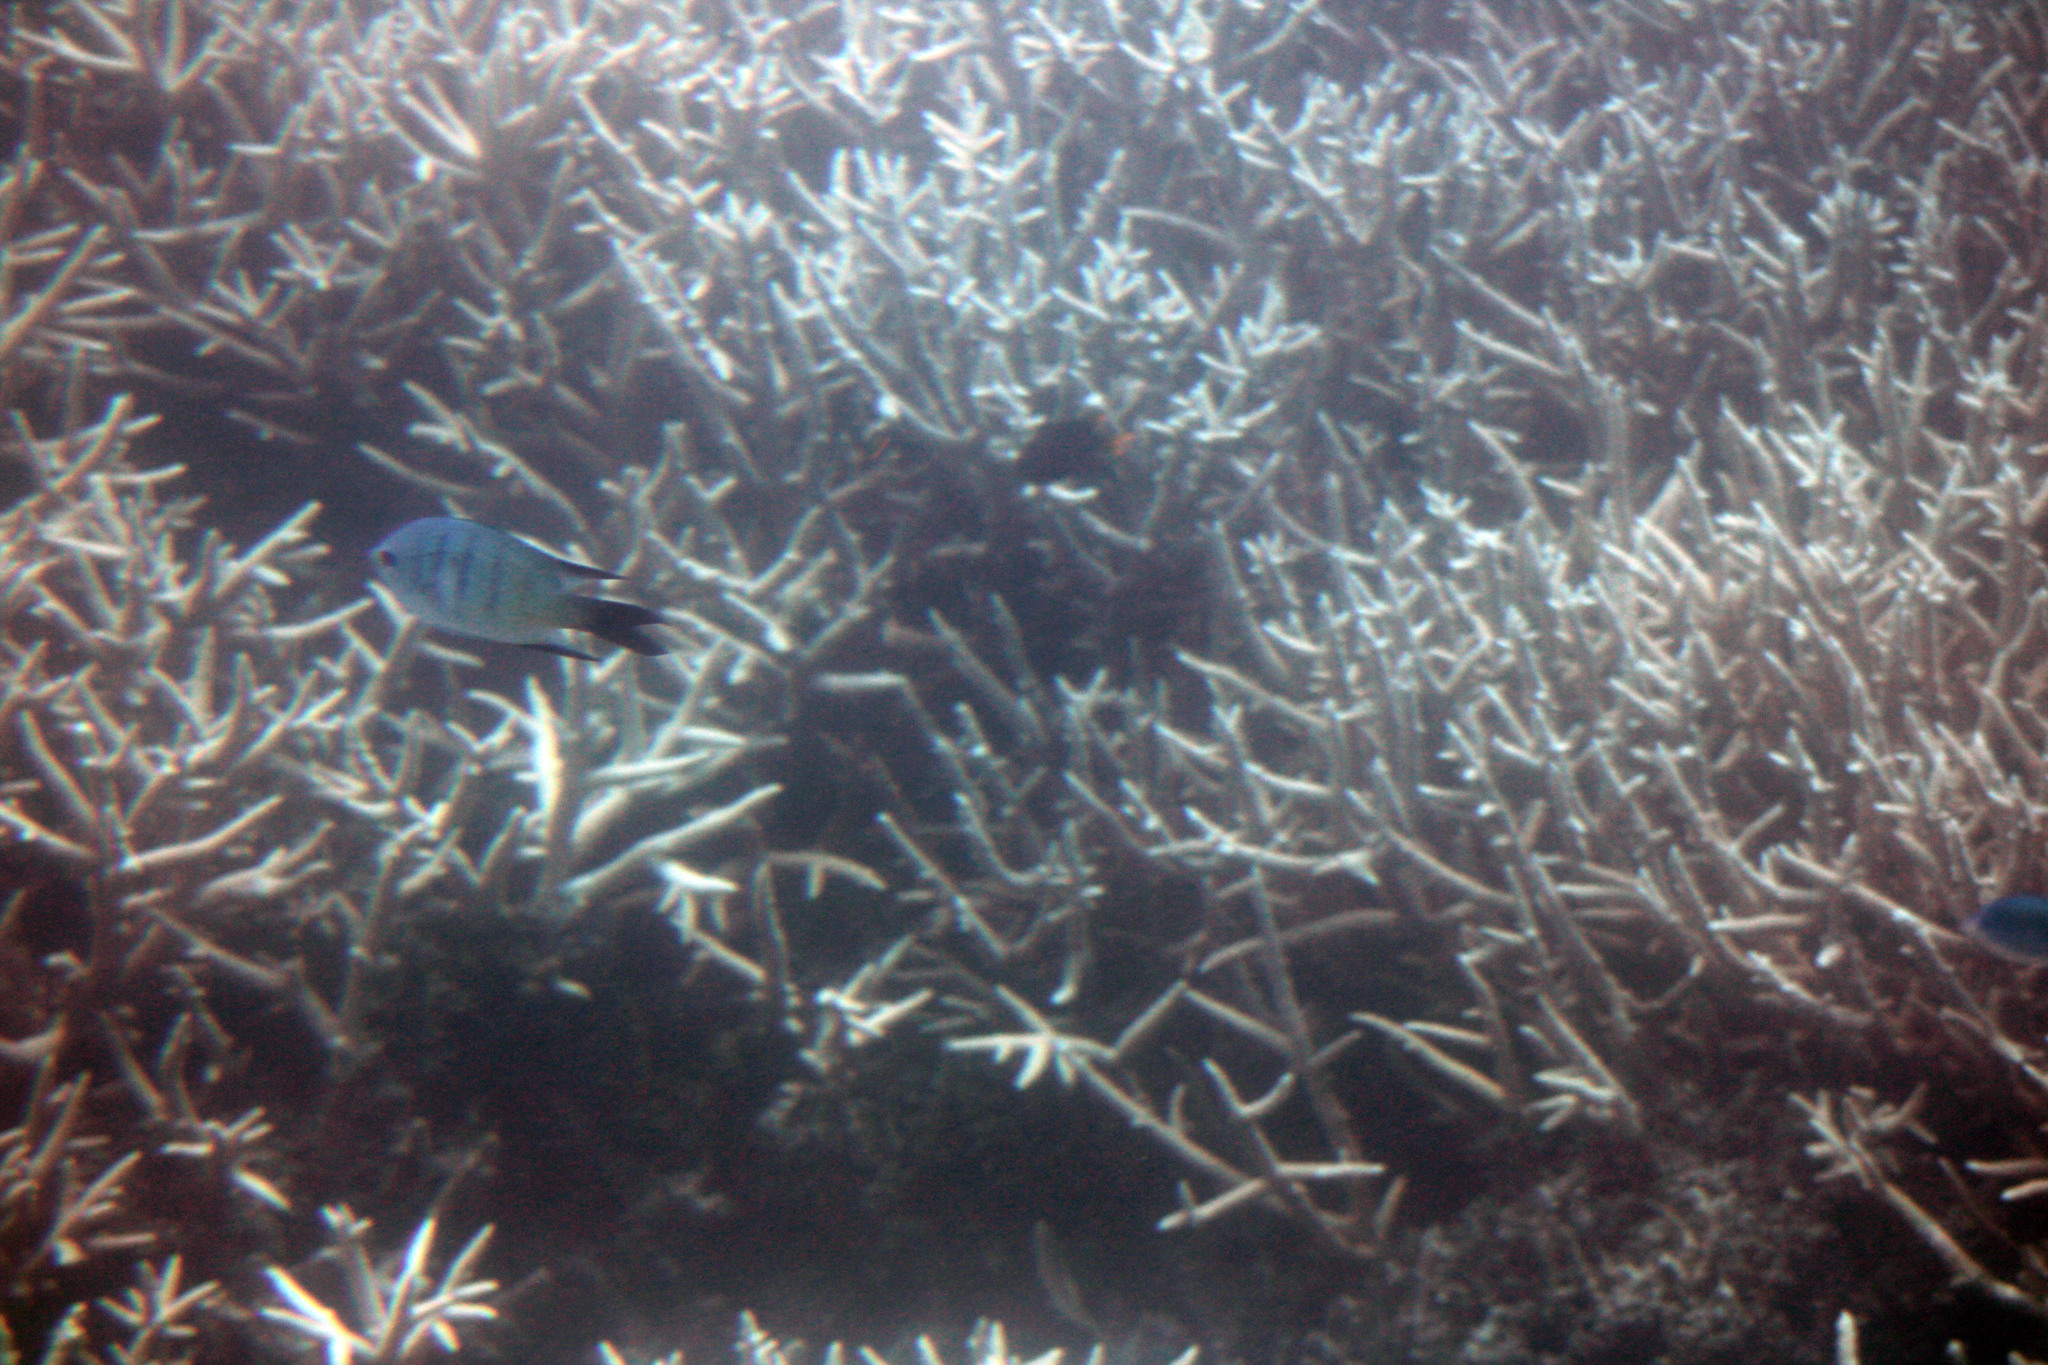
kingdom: Animalia
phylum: Chordata
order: Perciformes
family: Pomacentridae
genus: Abudefduf
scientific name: Abudefduf whitleyi
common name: Whitley's seargent
